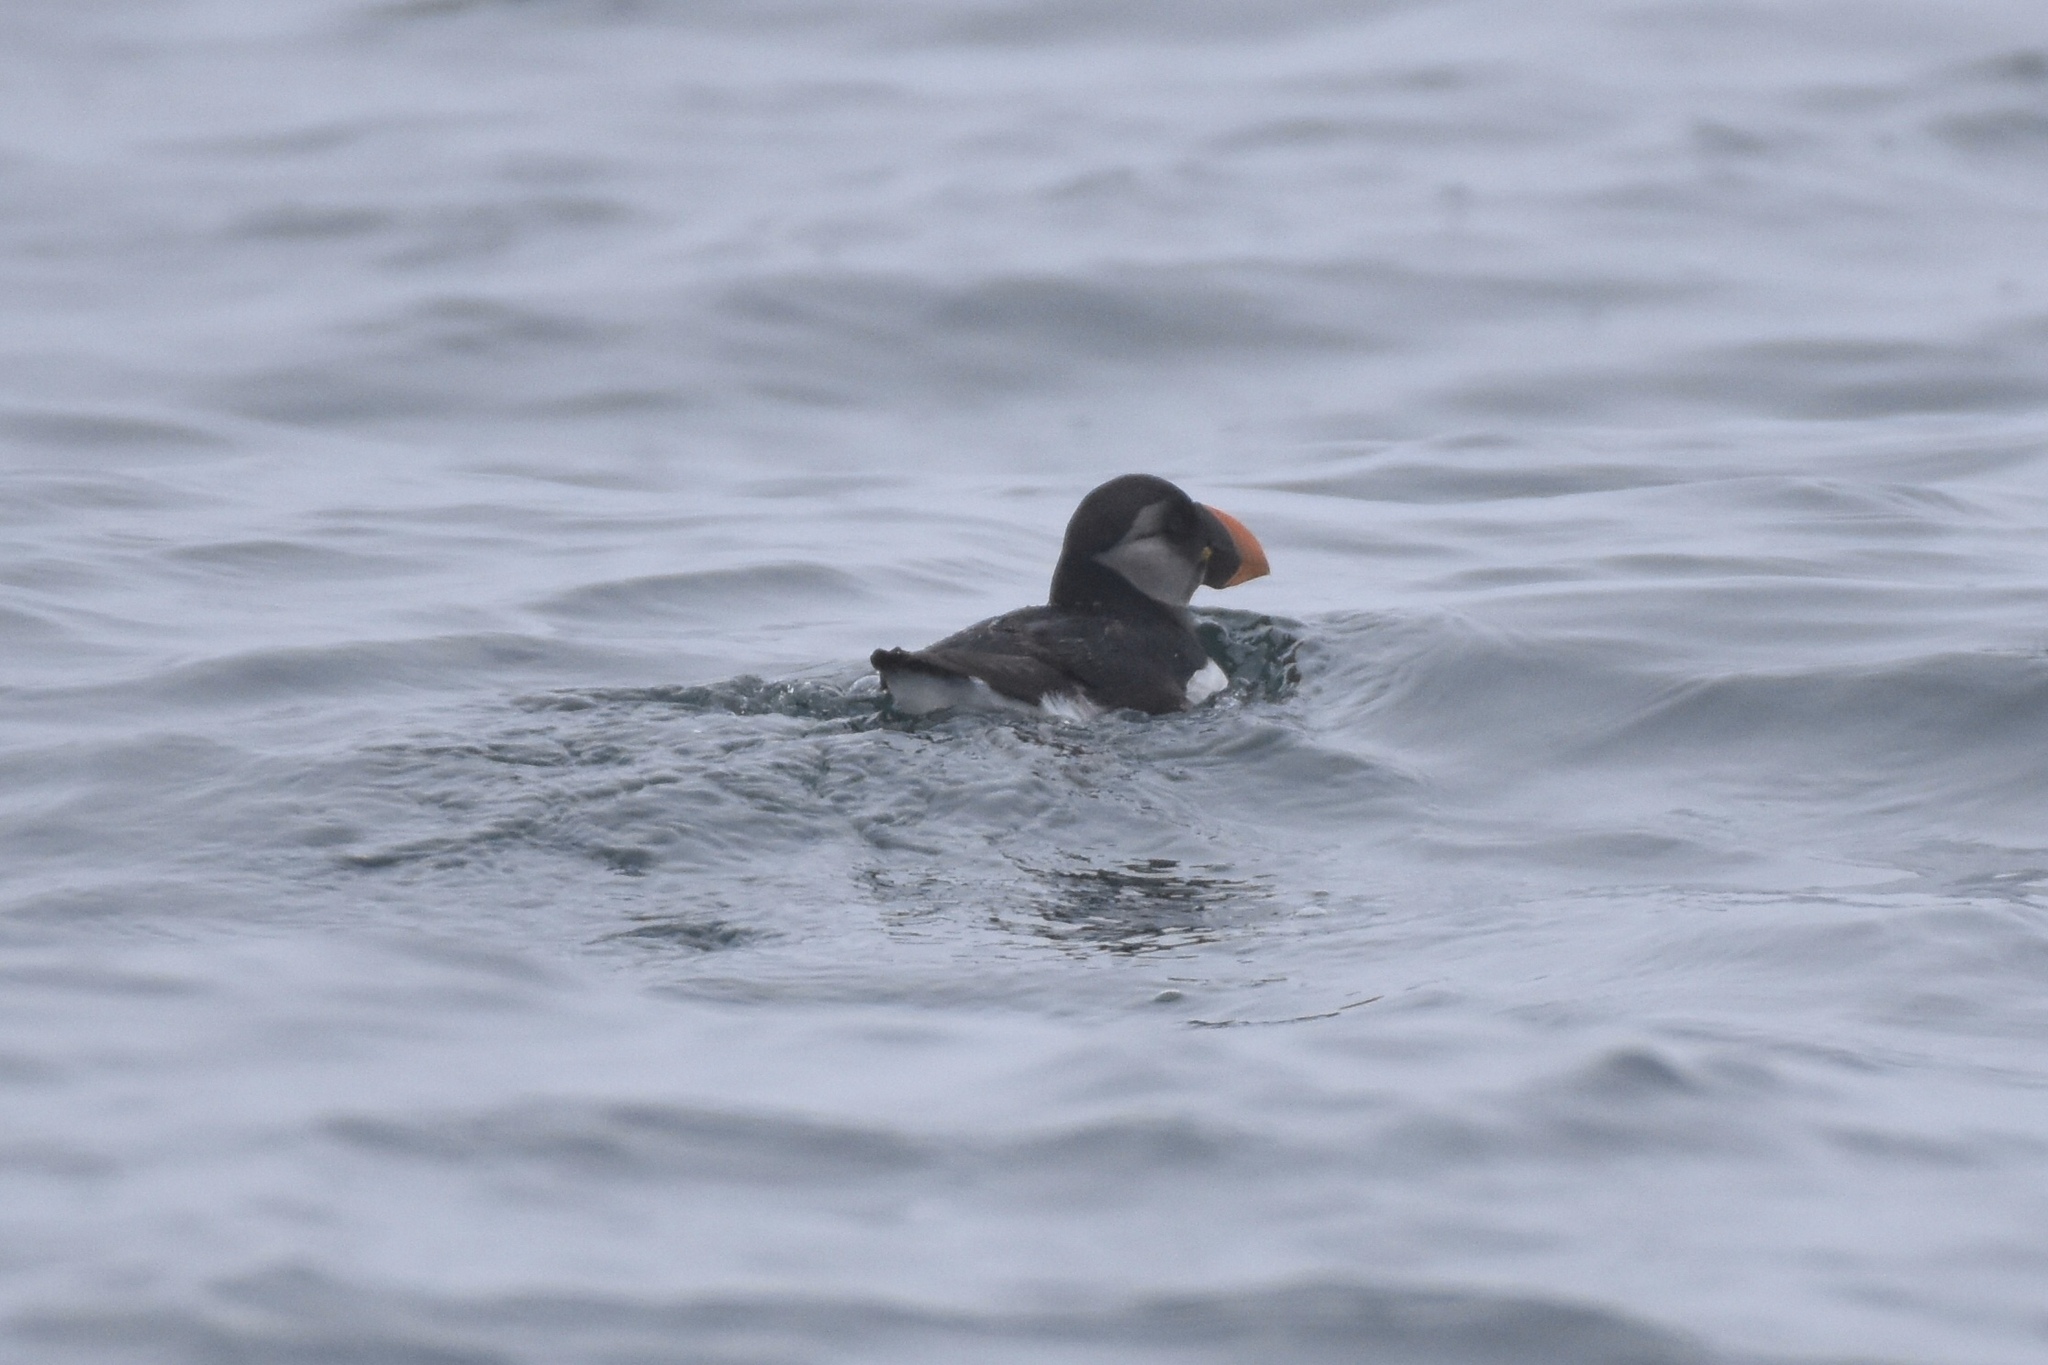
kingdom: Animalia
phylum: Chordata
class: Aves
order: Charadriiformes
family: Alcidae
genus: Fratercula
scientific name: Fratercula arctica
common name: Atlantic puffin
